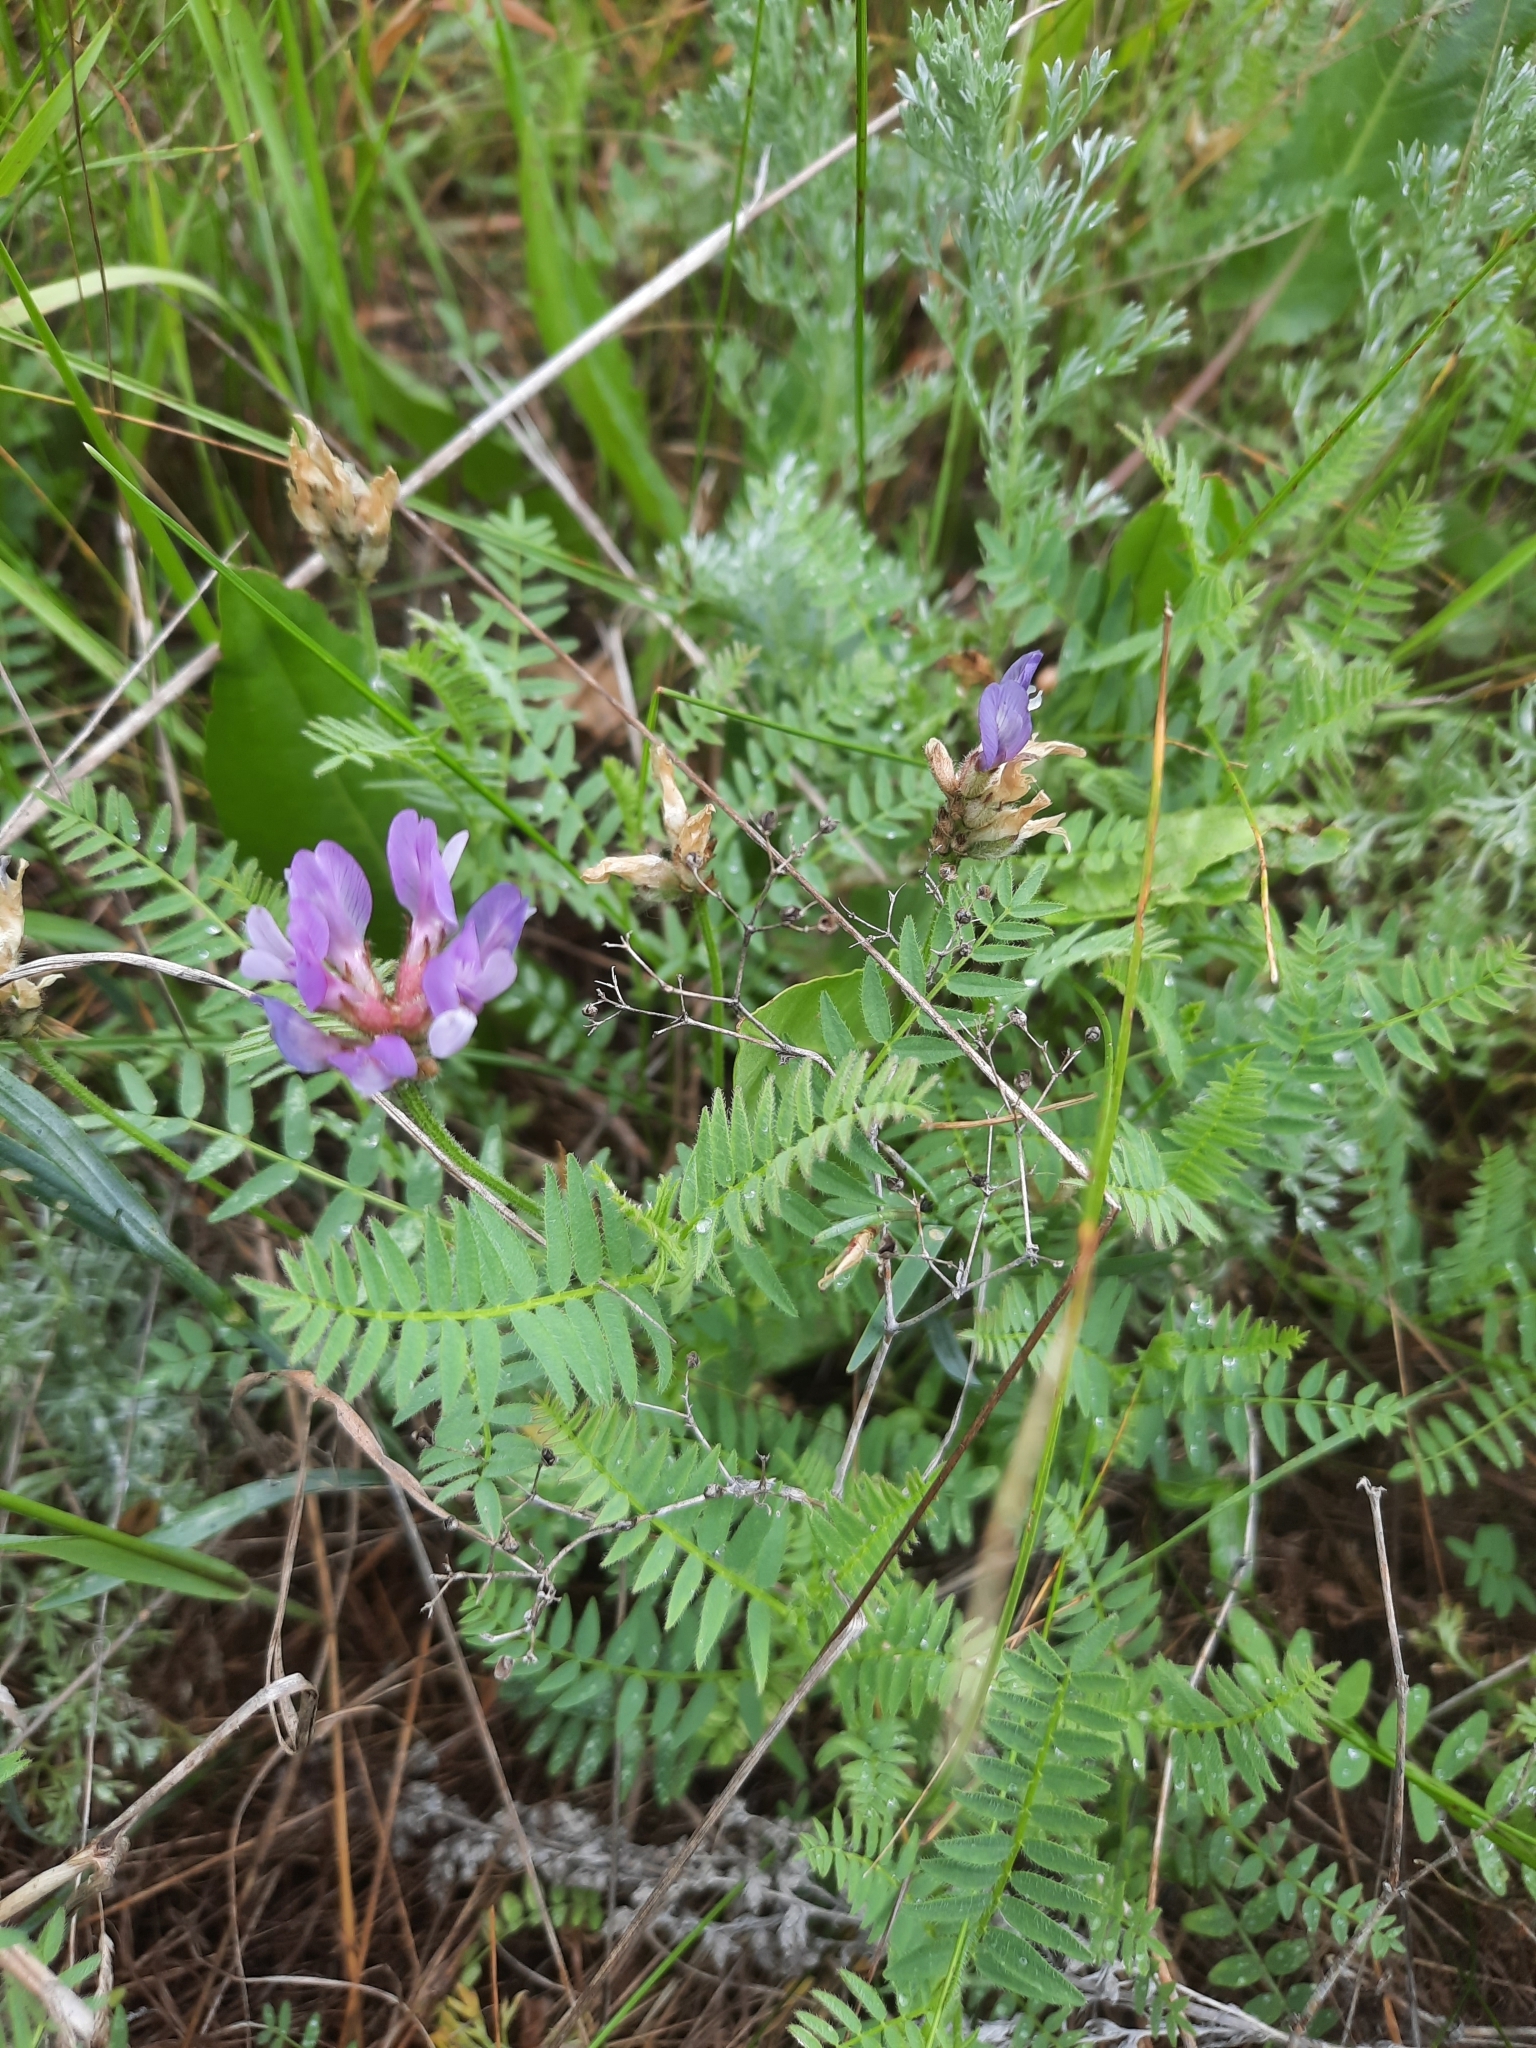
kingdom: Plantae
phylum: Tracheophyta
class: Magnoliopsida
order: Fabales
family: Fabaceae
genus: Astragalus
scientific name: Astragalus danicus
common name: Purple milk-vetch
